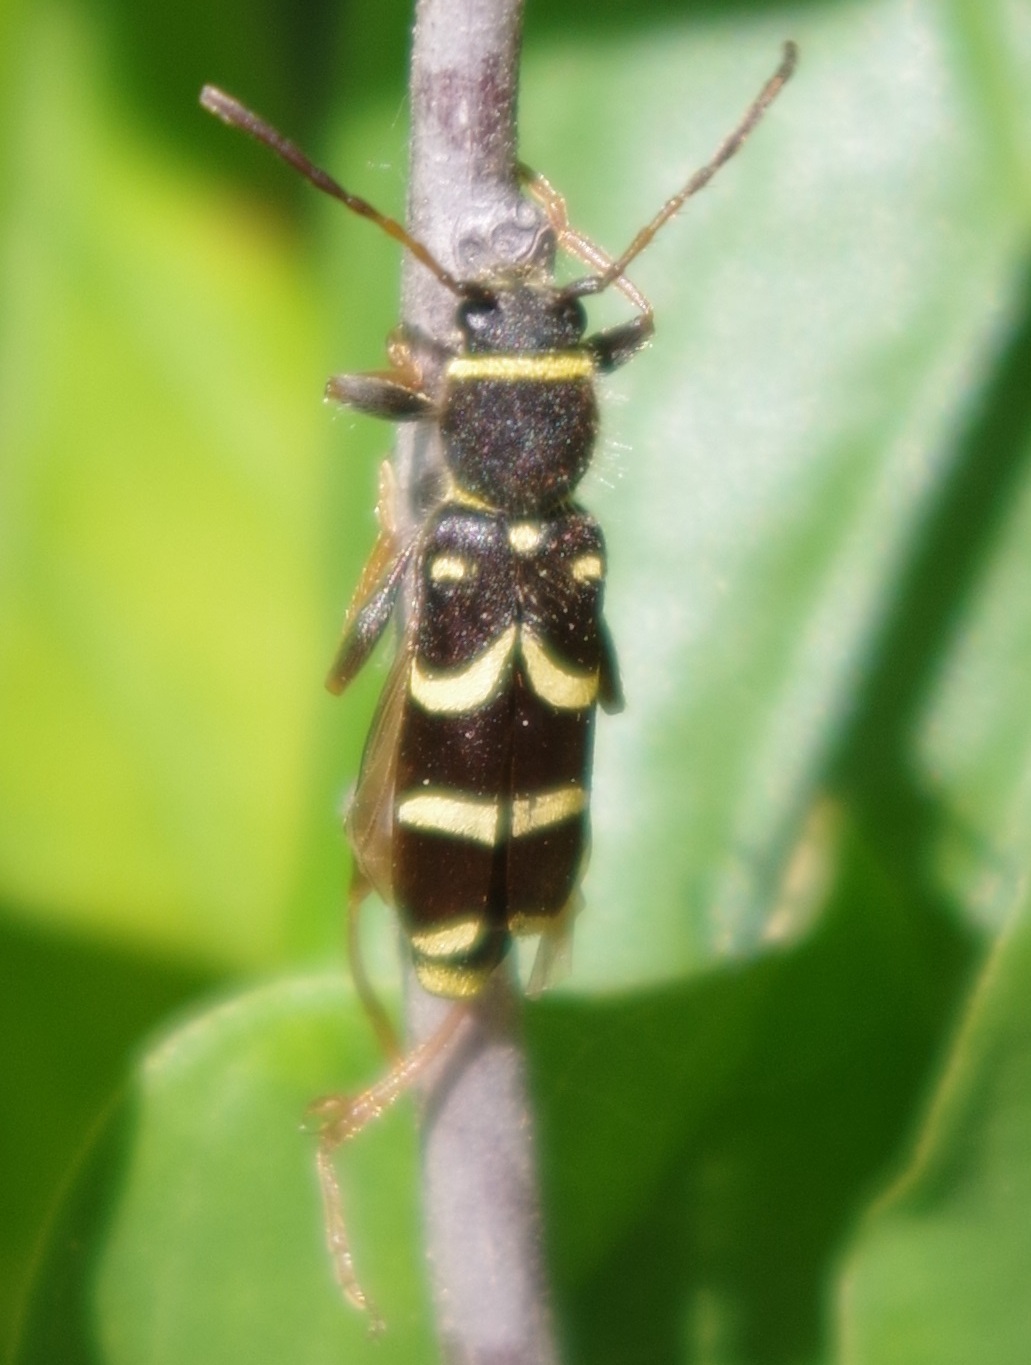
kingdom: Animalia
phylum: Arthropoda
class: Insecta
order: Coleoptera
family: Cerambycidae
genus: Clytus
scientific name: Clytus arietis
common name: Wasp beetle
